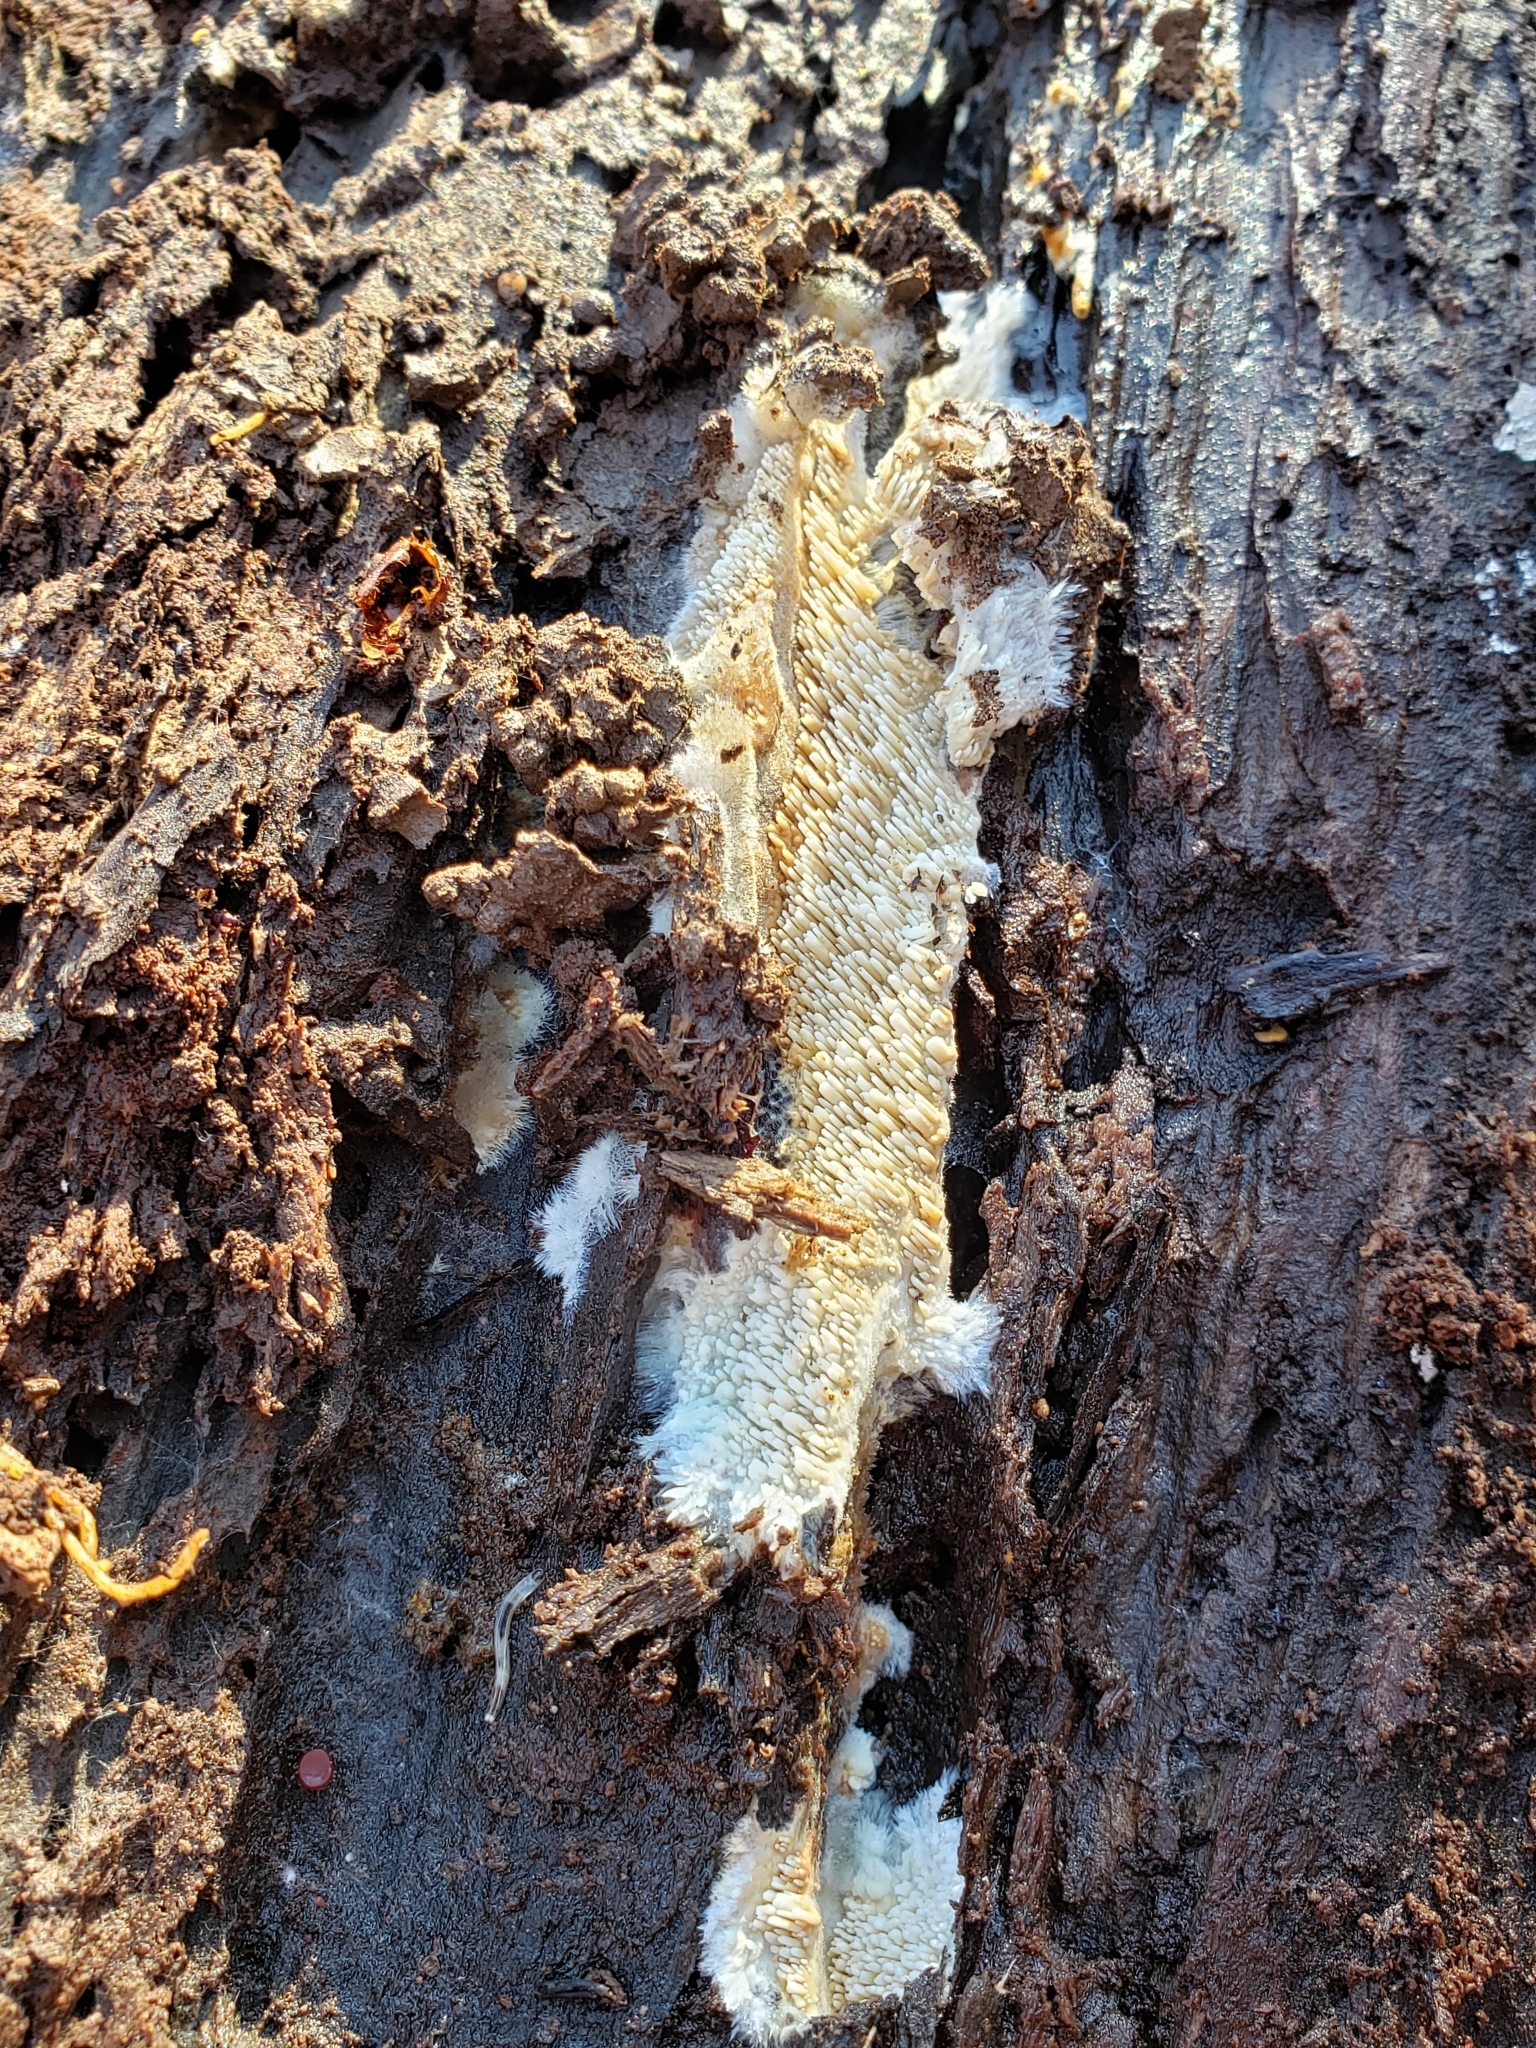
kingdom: Fungi
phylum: Basidiomycota
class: Agaricomycetes
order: Agaricales
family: Radulomycetaceae
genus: Radulomyces
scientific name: Radulomyces copelandii
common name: Asian beauty
